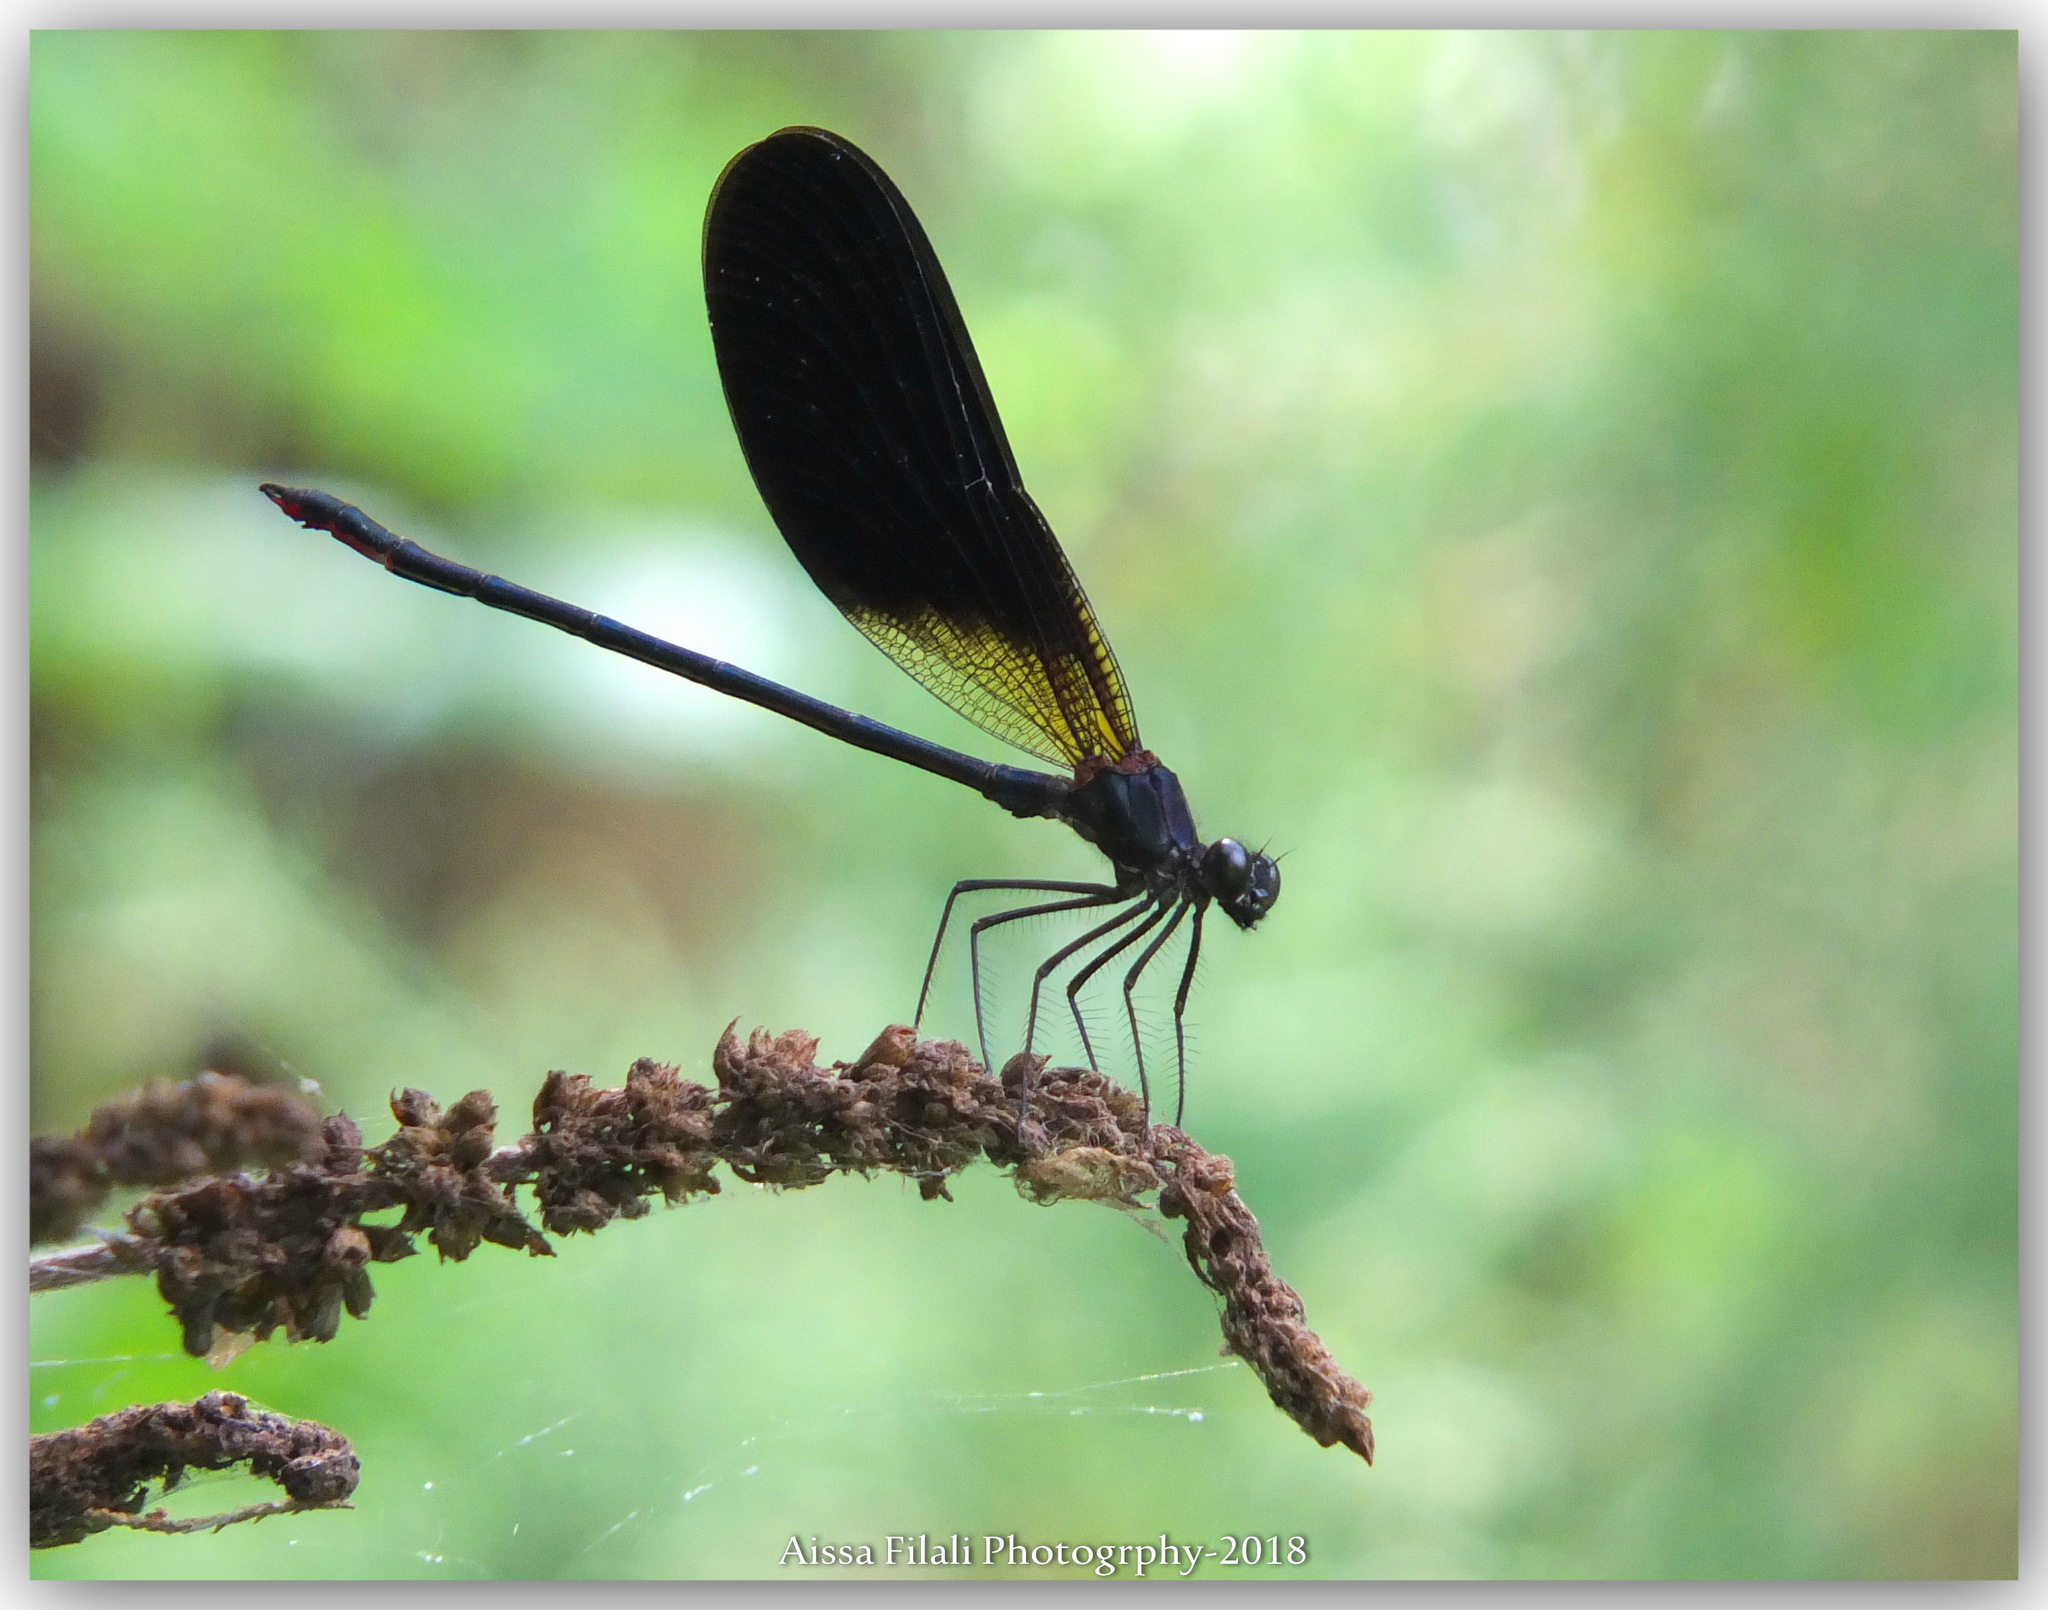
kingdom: Animalia
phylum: Arthropoda
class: Insecta
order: Odonata
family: Calopterygidae
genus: Calopteryx
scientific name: Calopteryx haemorrhoidalis
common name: Copper demoiselle
